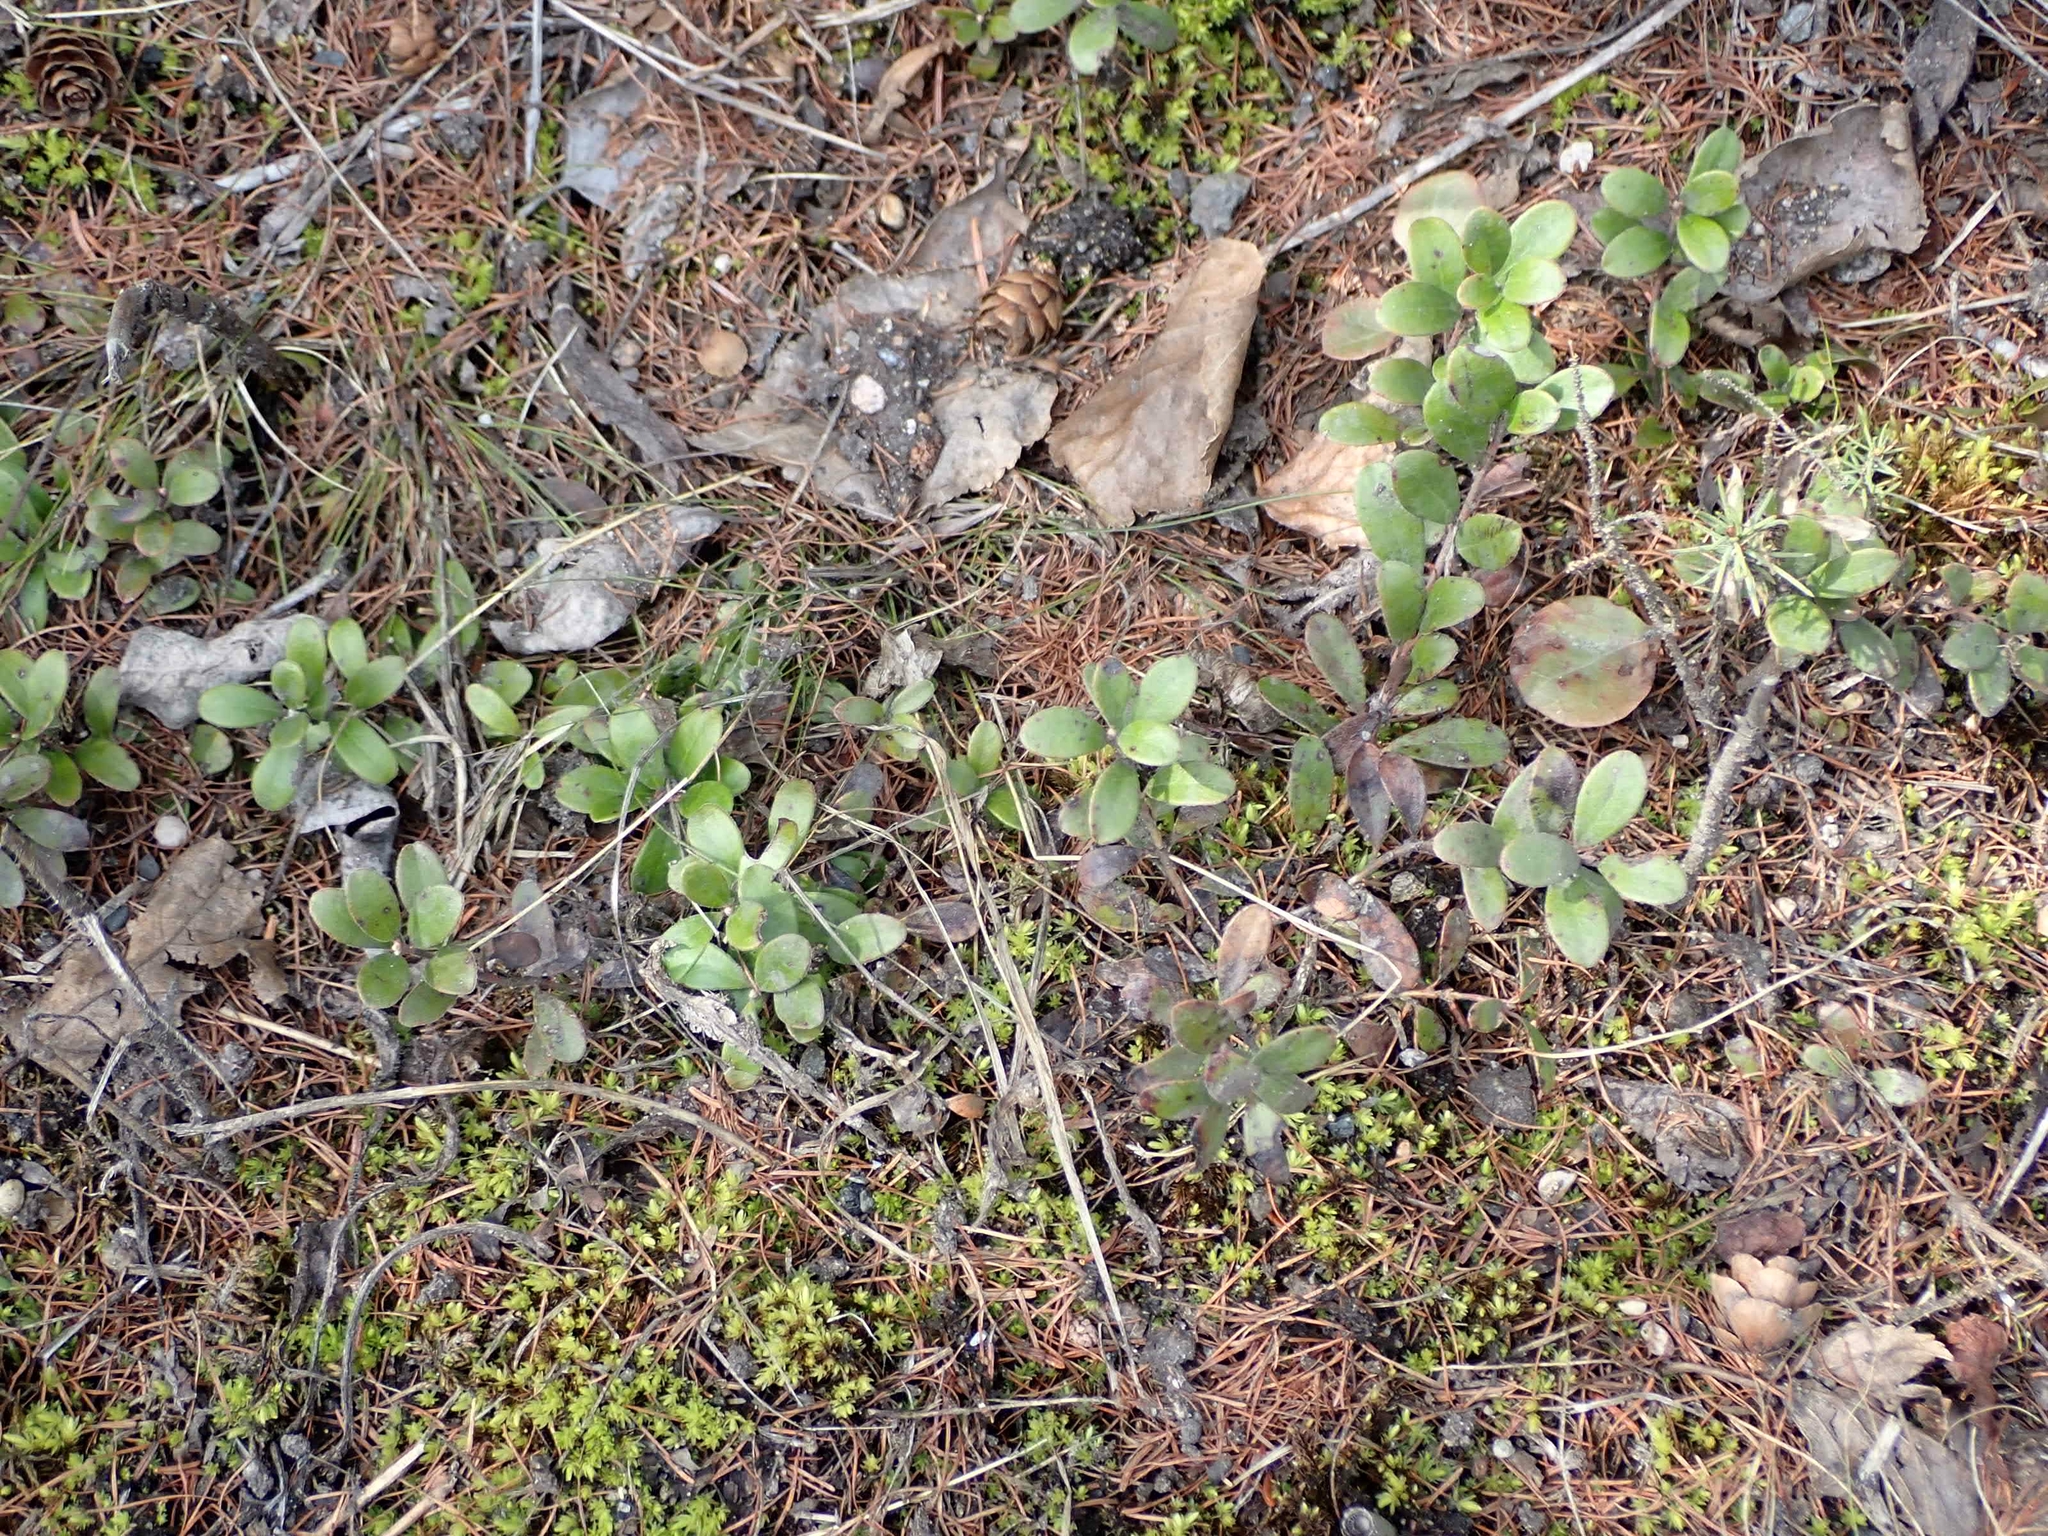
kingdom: Plantae
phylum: Tracheophyta
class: Magnoliopsida
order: Ericales
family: Ericaceae
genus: Arctostaphylos
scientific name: Arctostaphylos uva-ursi
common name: Bearberry
